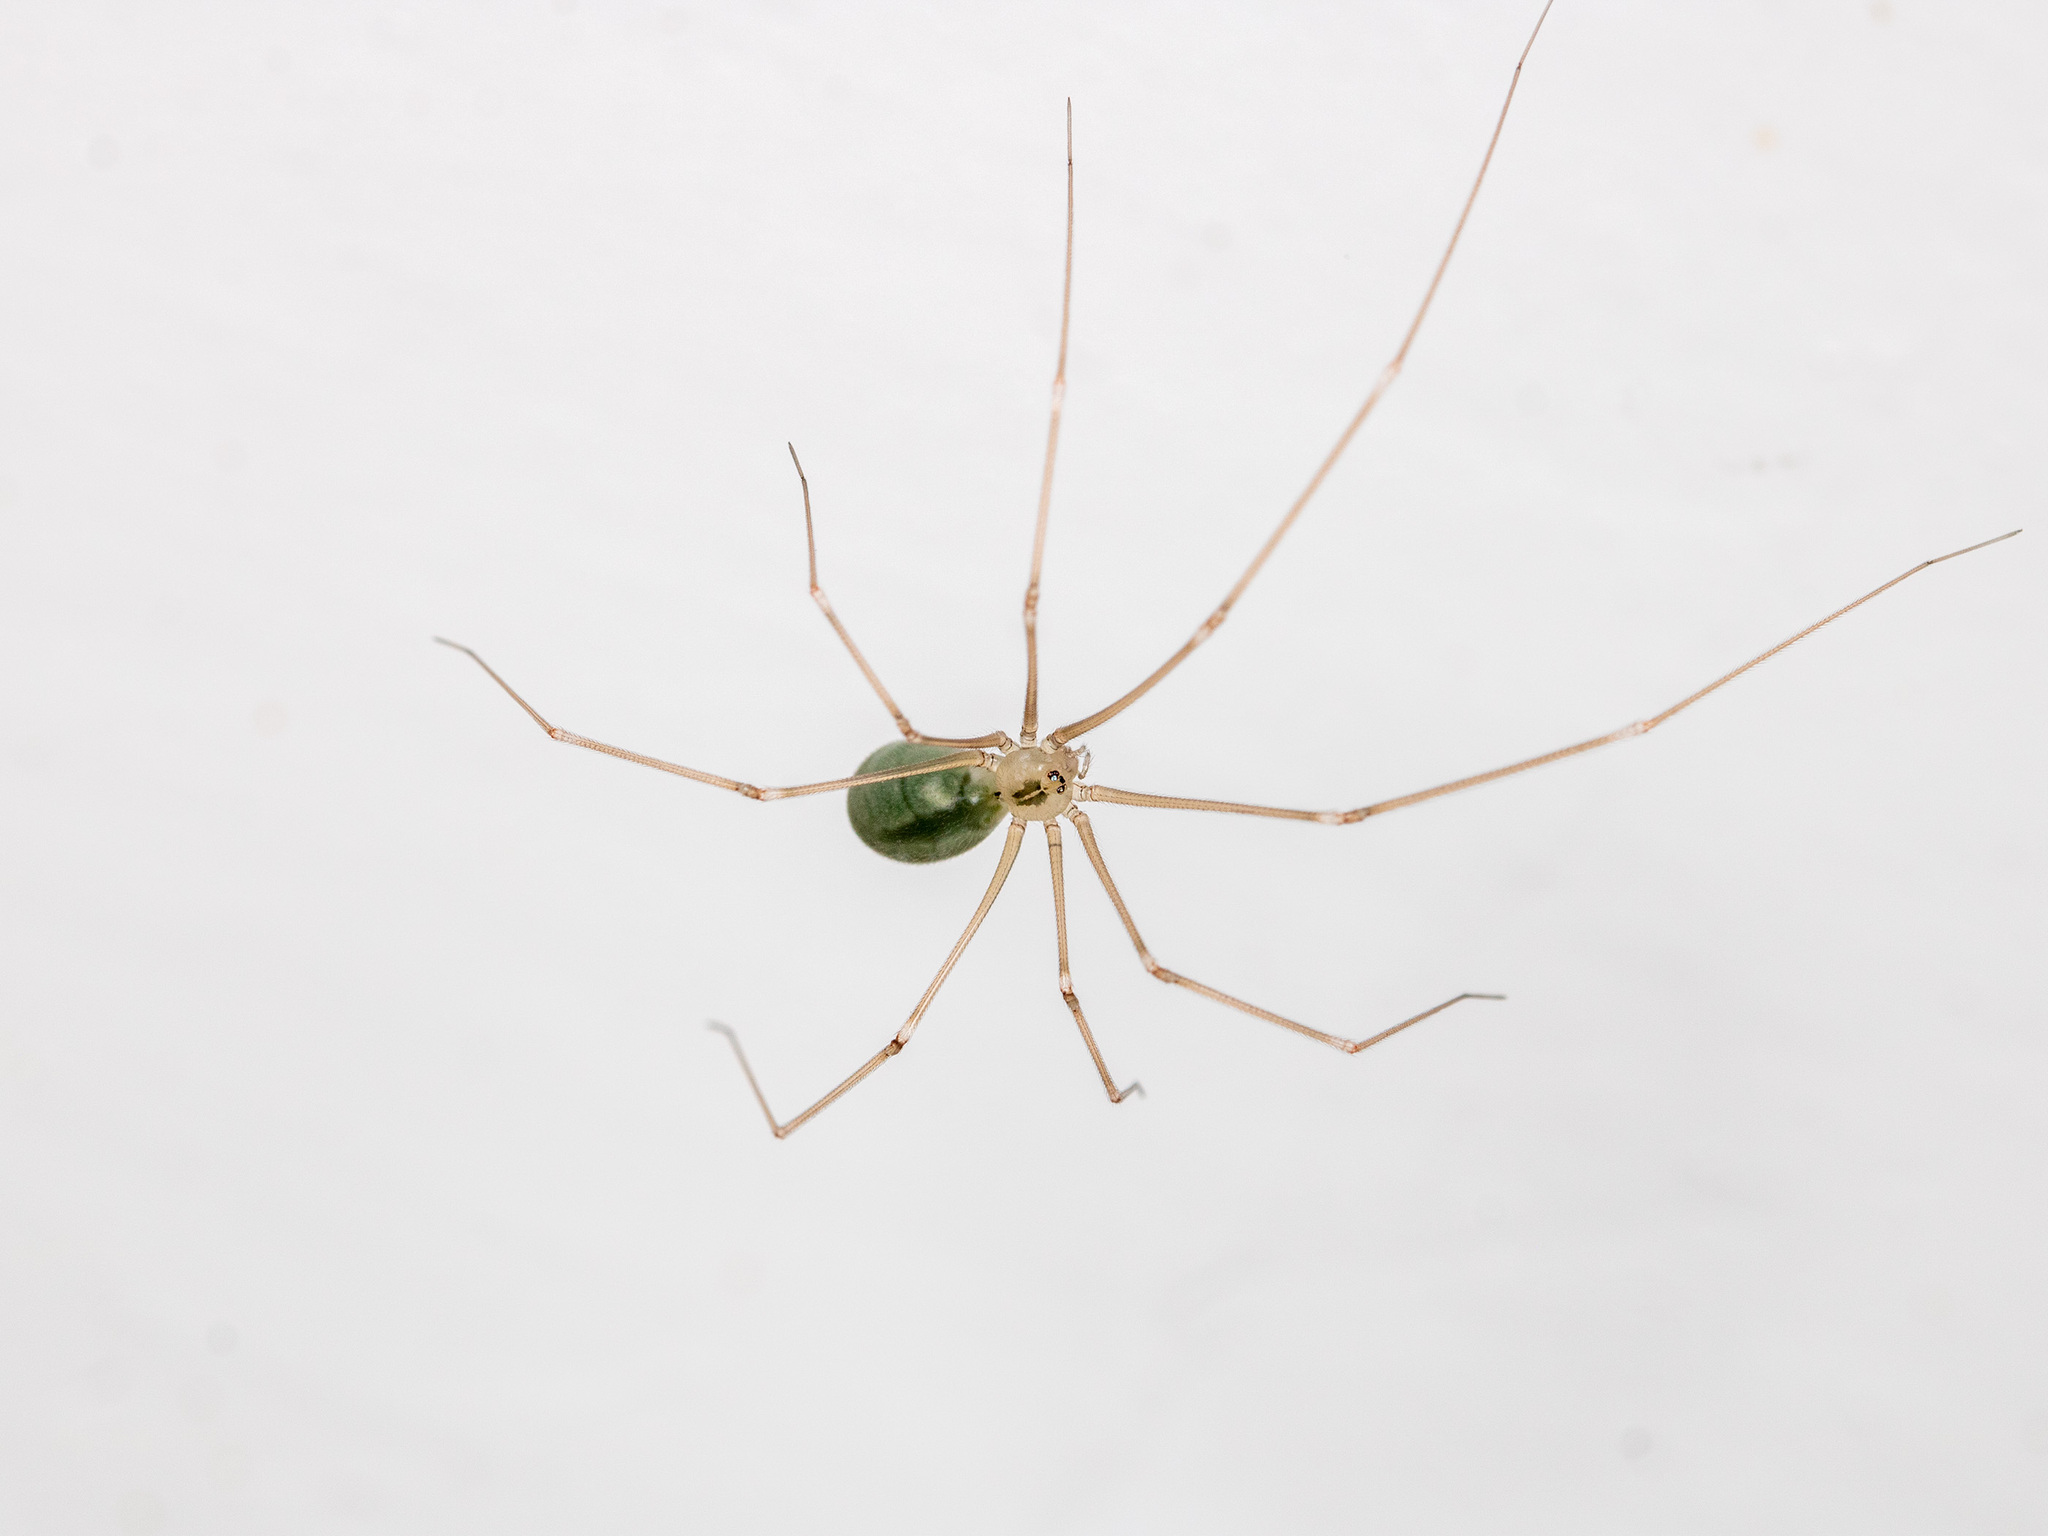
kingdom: Animalia
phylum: Arthropoda
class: Arachnida
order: Araneae
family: Pholcidae
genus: Pholcus
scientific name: Pholcus ponticus
